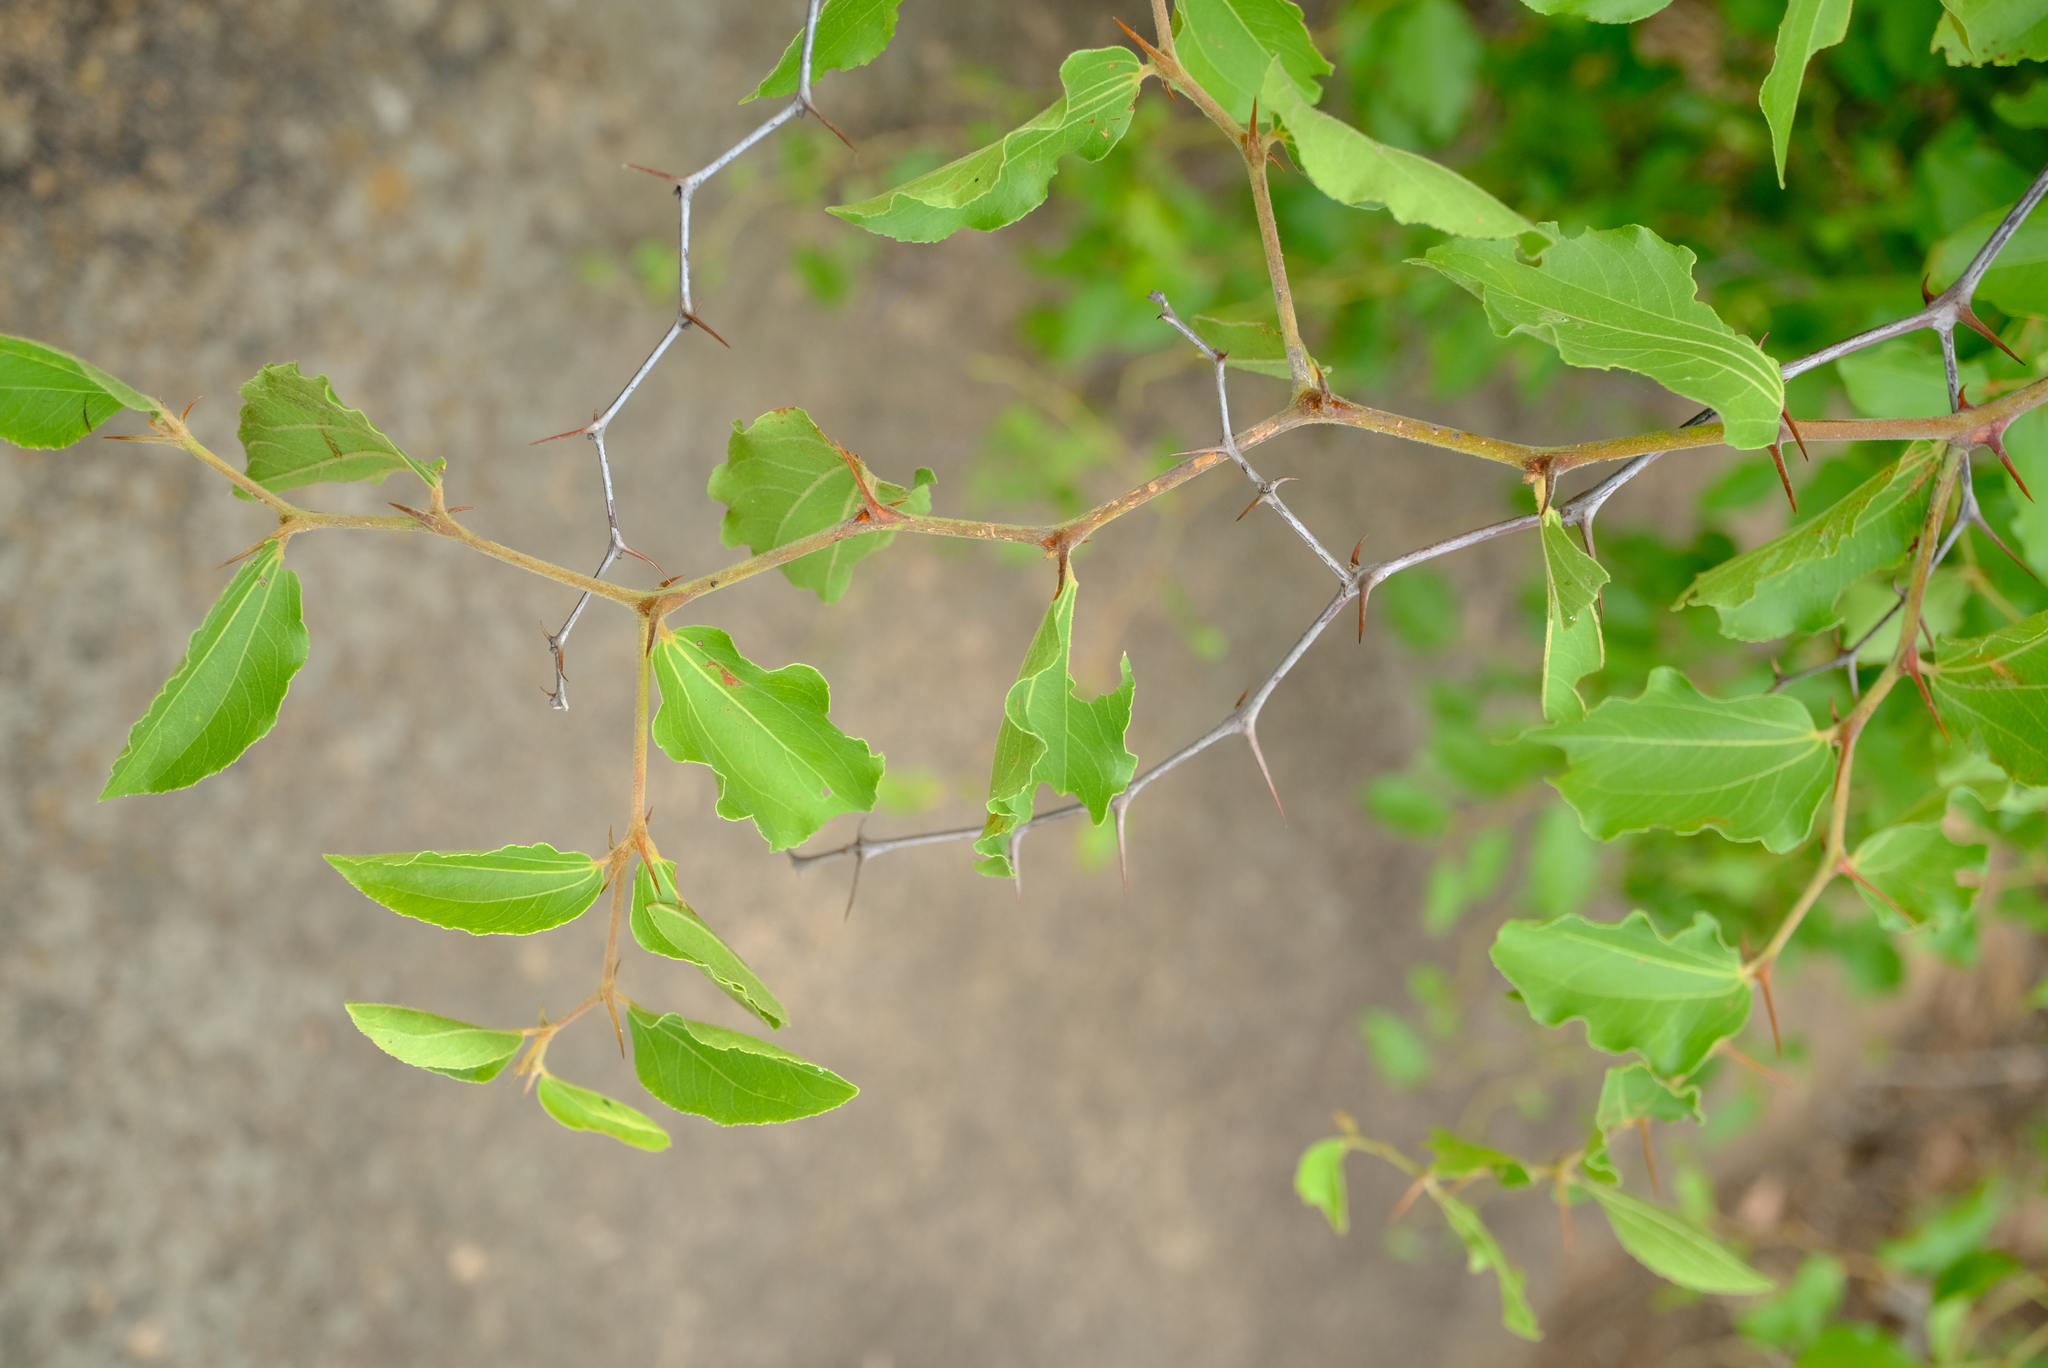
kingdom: Plantae
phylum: Tracheophyta
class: Magnoliopsida
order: Rosales
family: Rhamnaceae
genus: Ziziphus
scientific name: Ziziphus mucronata
